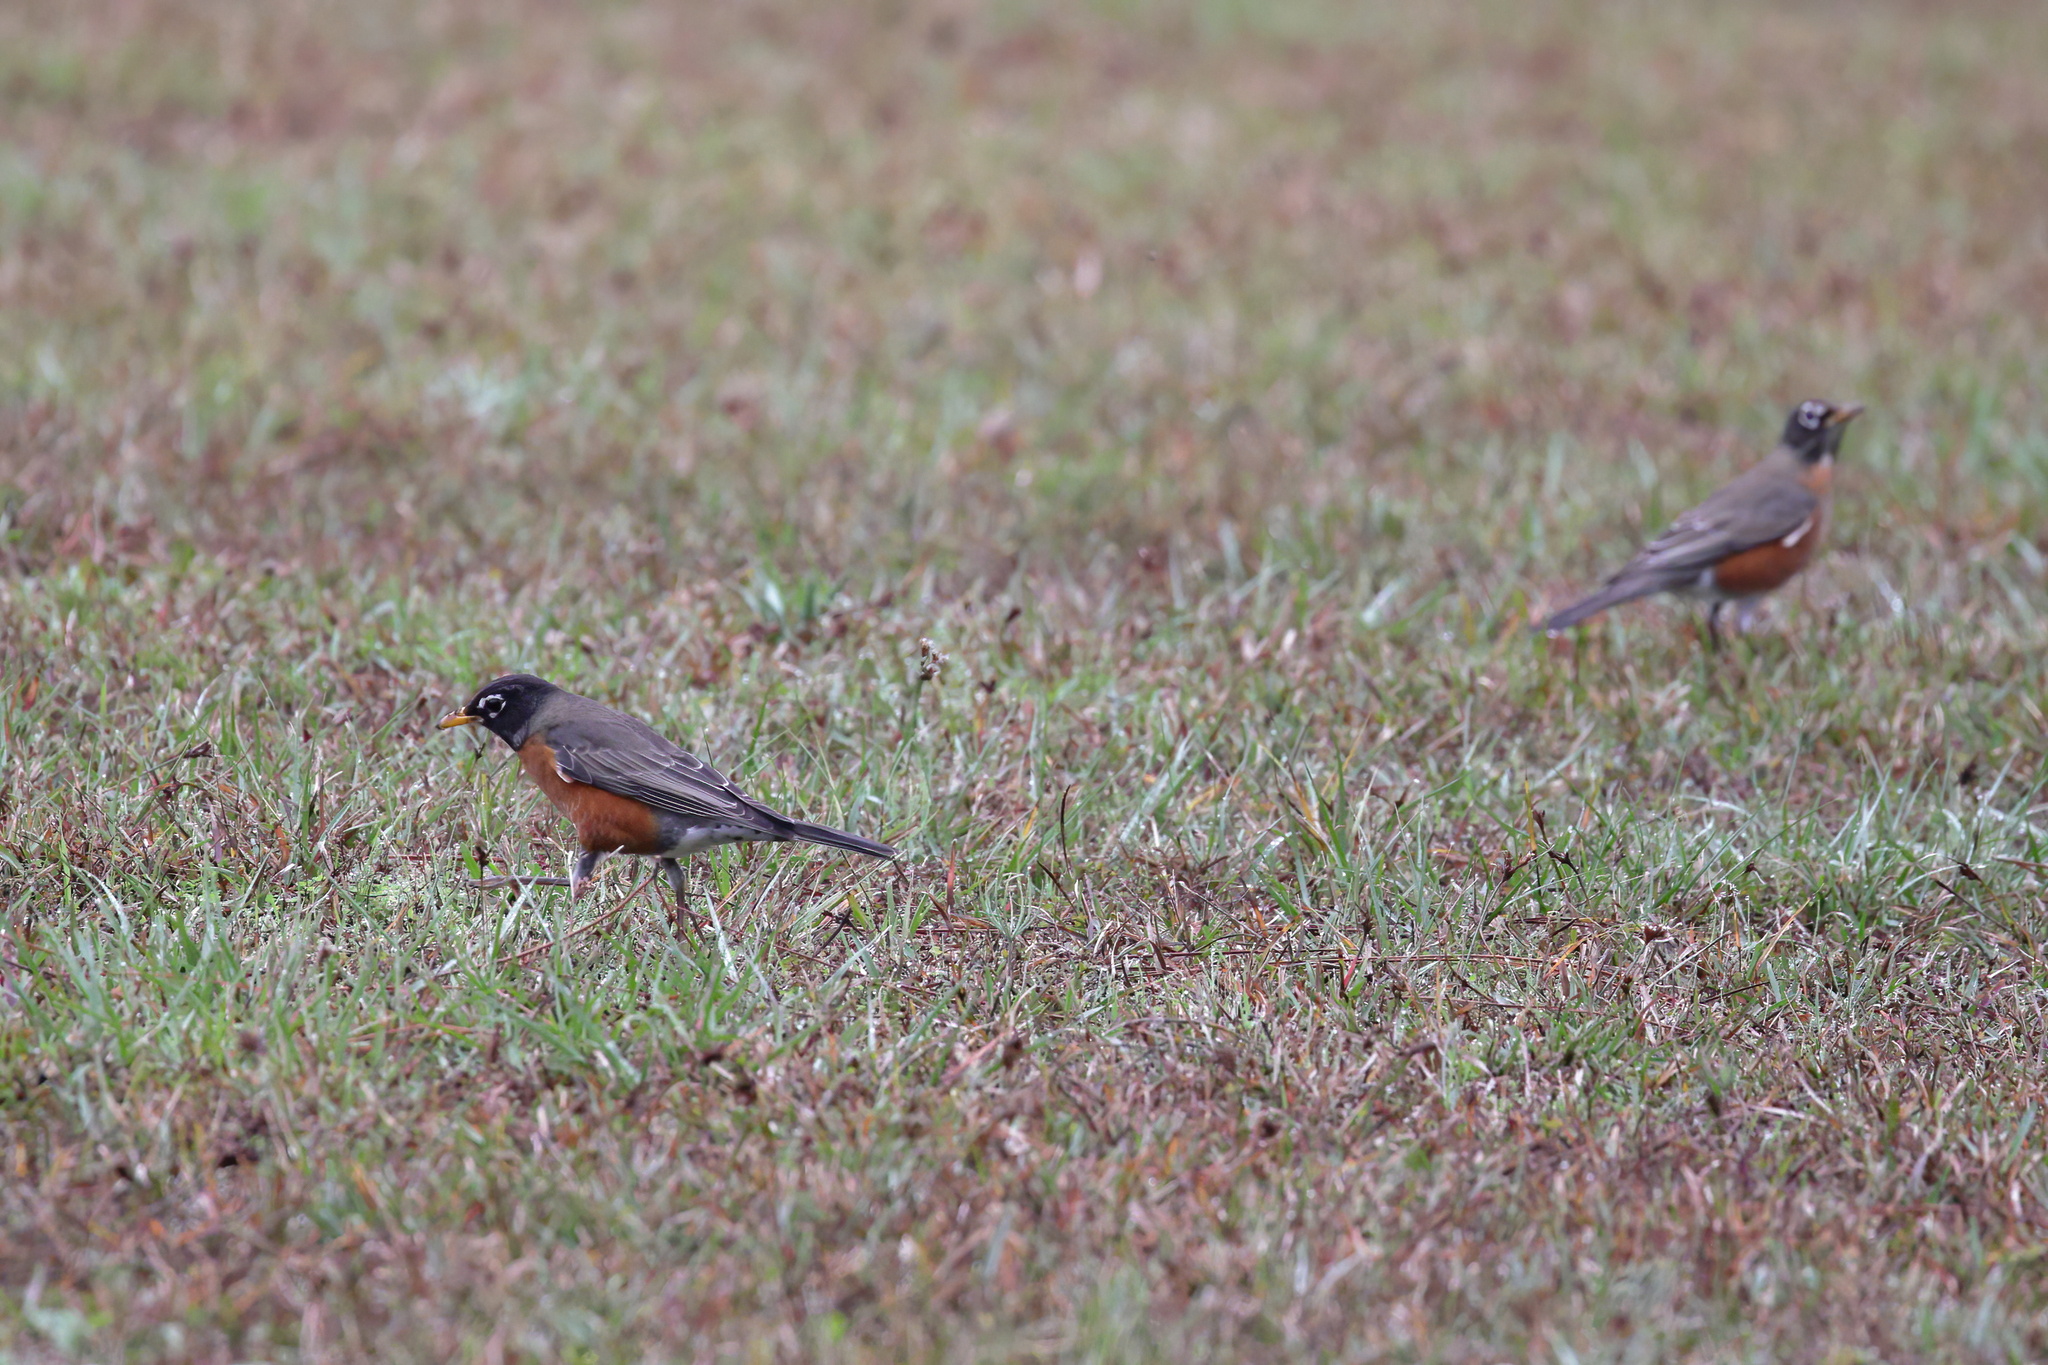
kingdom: Animalia
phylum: Chordata
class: Aves
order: Passeriformes
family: Turdidae
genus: Turdus
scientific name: Turdus migratorius
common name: American robin
